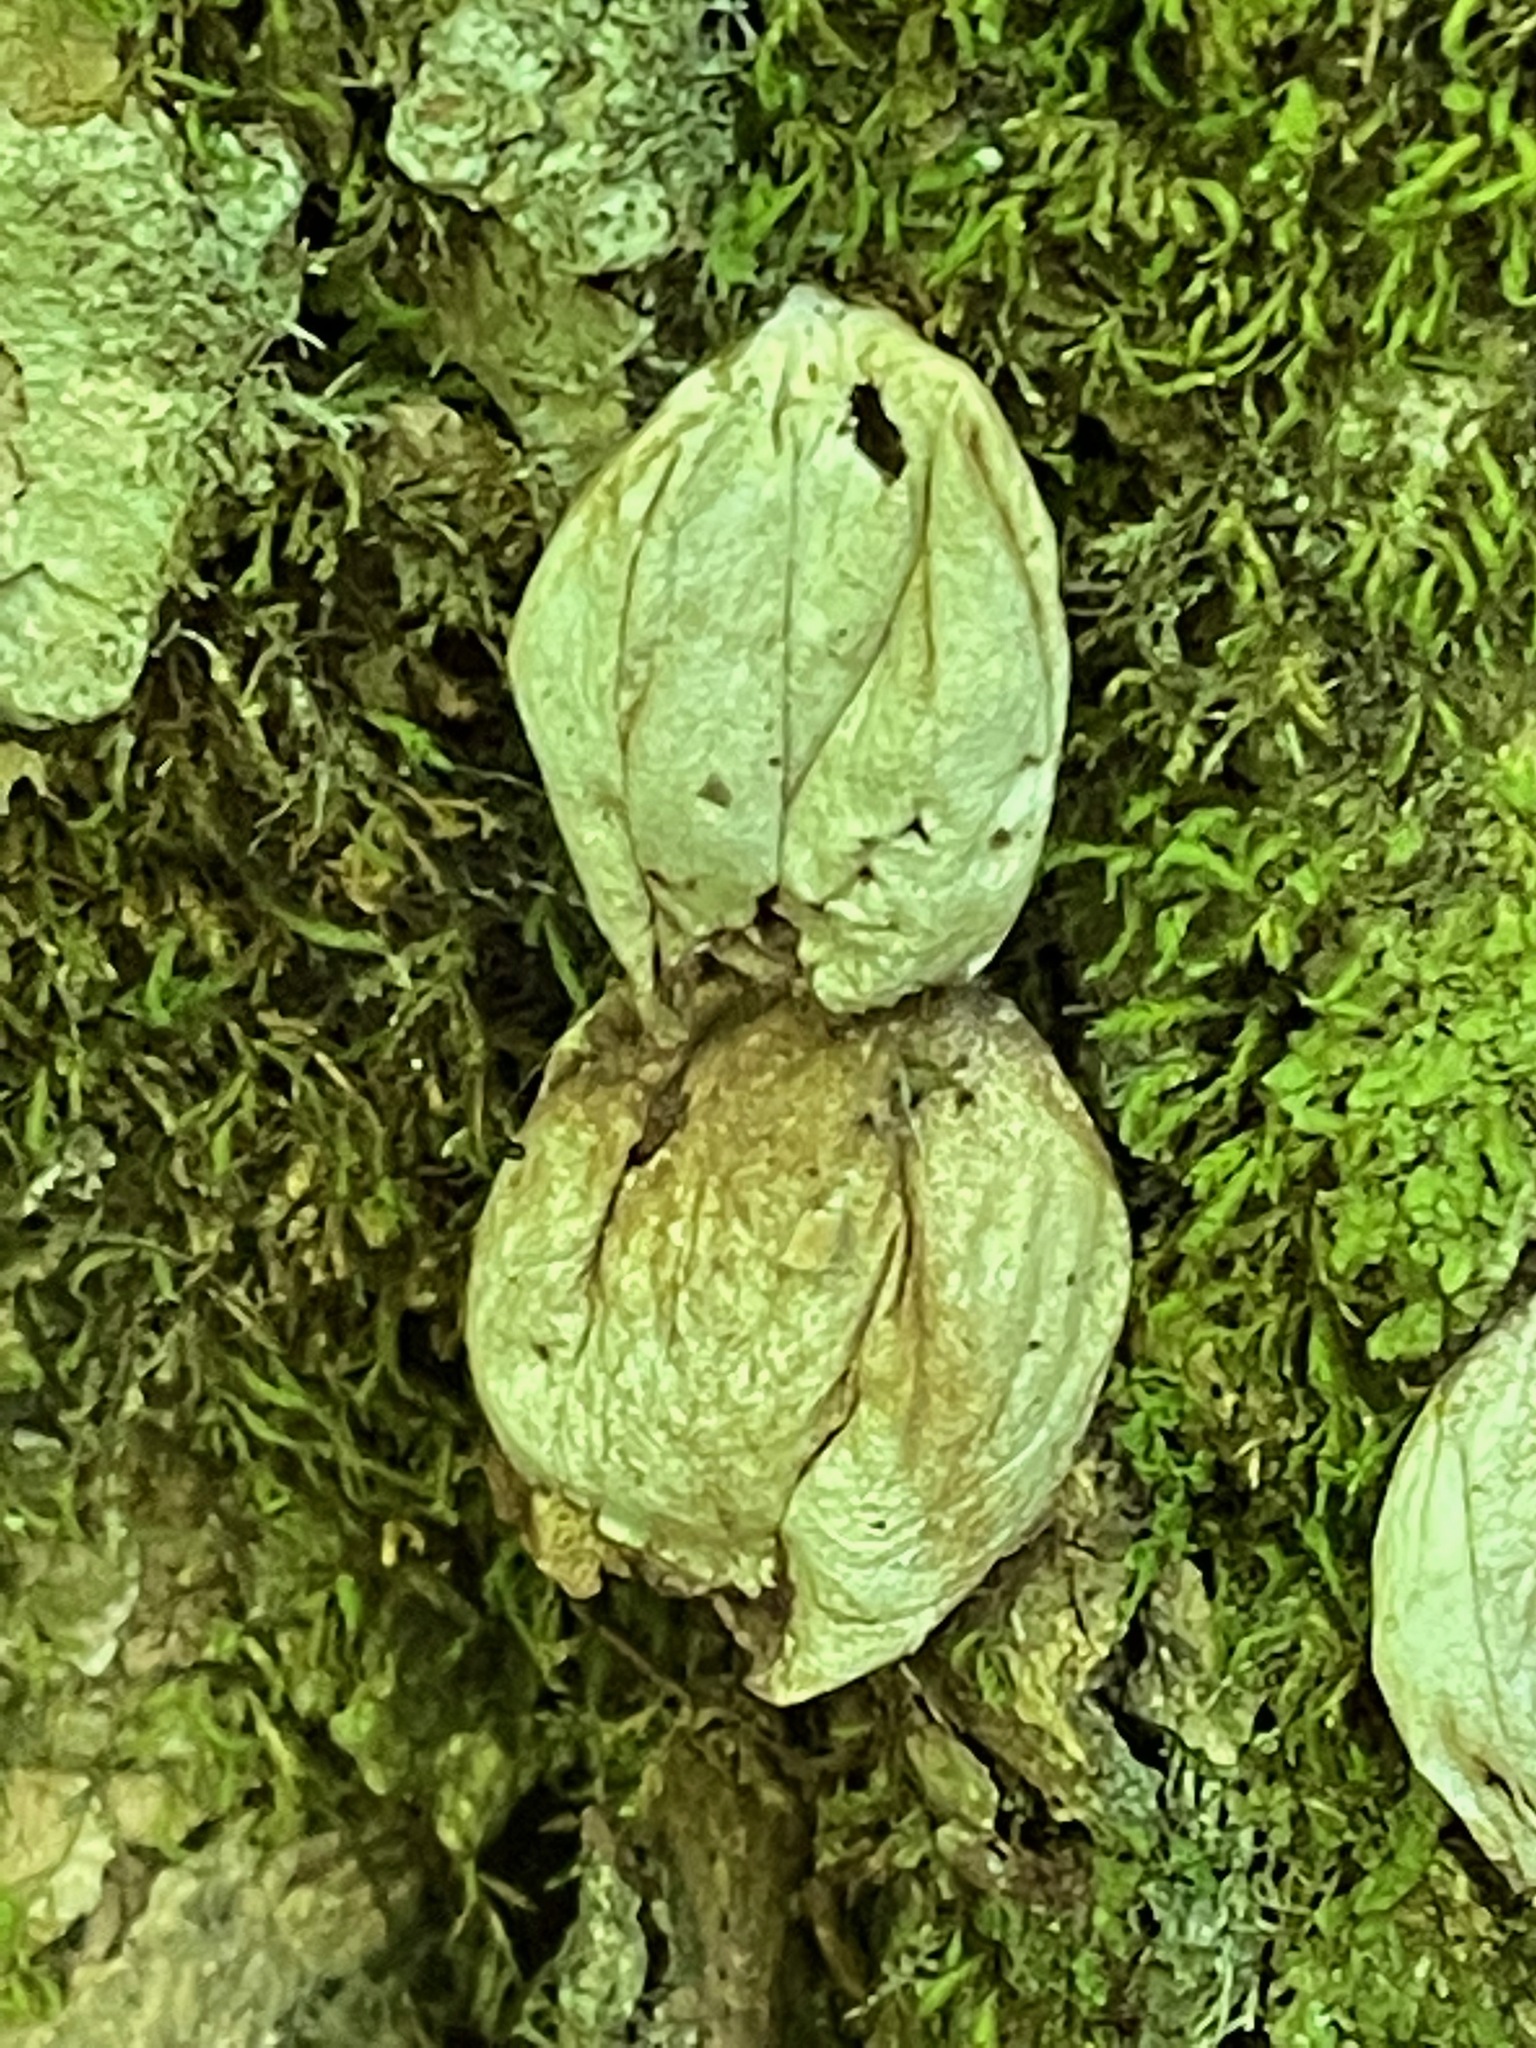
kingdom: Fungi
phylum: Basidiomycota
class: Agaricomycetes
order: Agaricales
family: Lycoperdaceae
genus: Apioperdon
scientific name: Apioperdon pyriforme
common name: Pear-shaped puffball
